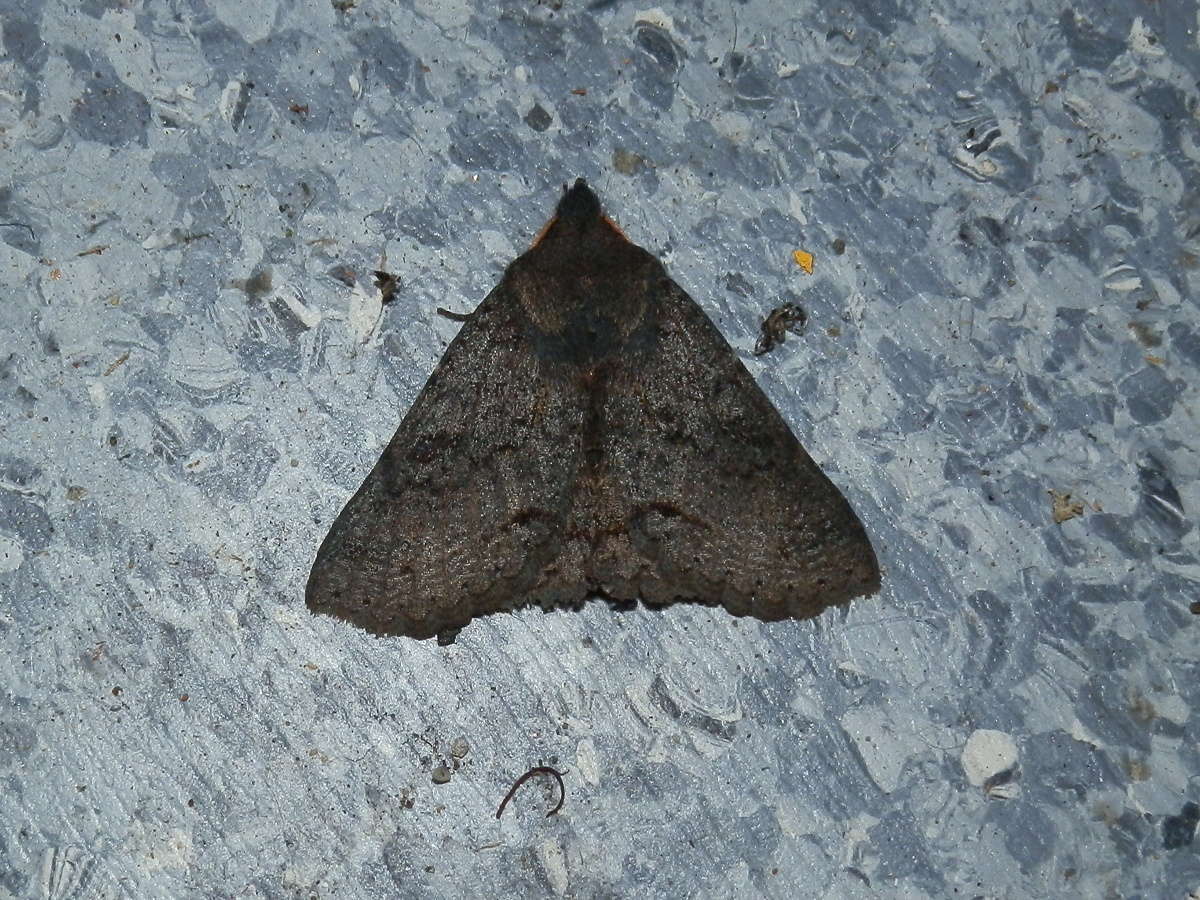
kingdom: Animalia
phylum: Arthropoda
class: Insecta
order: Lepidoptera
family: Erebidae
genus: Praxis
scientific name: Praxis pandesma
